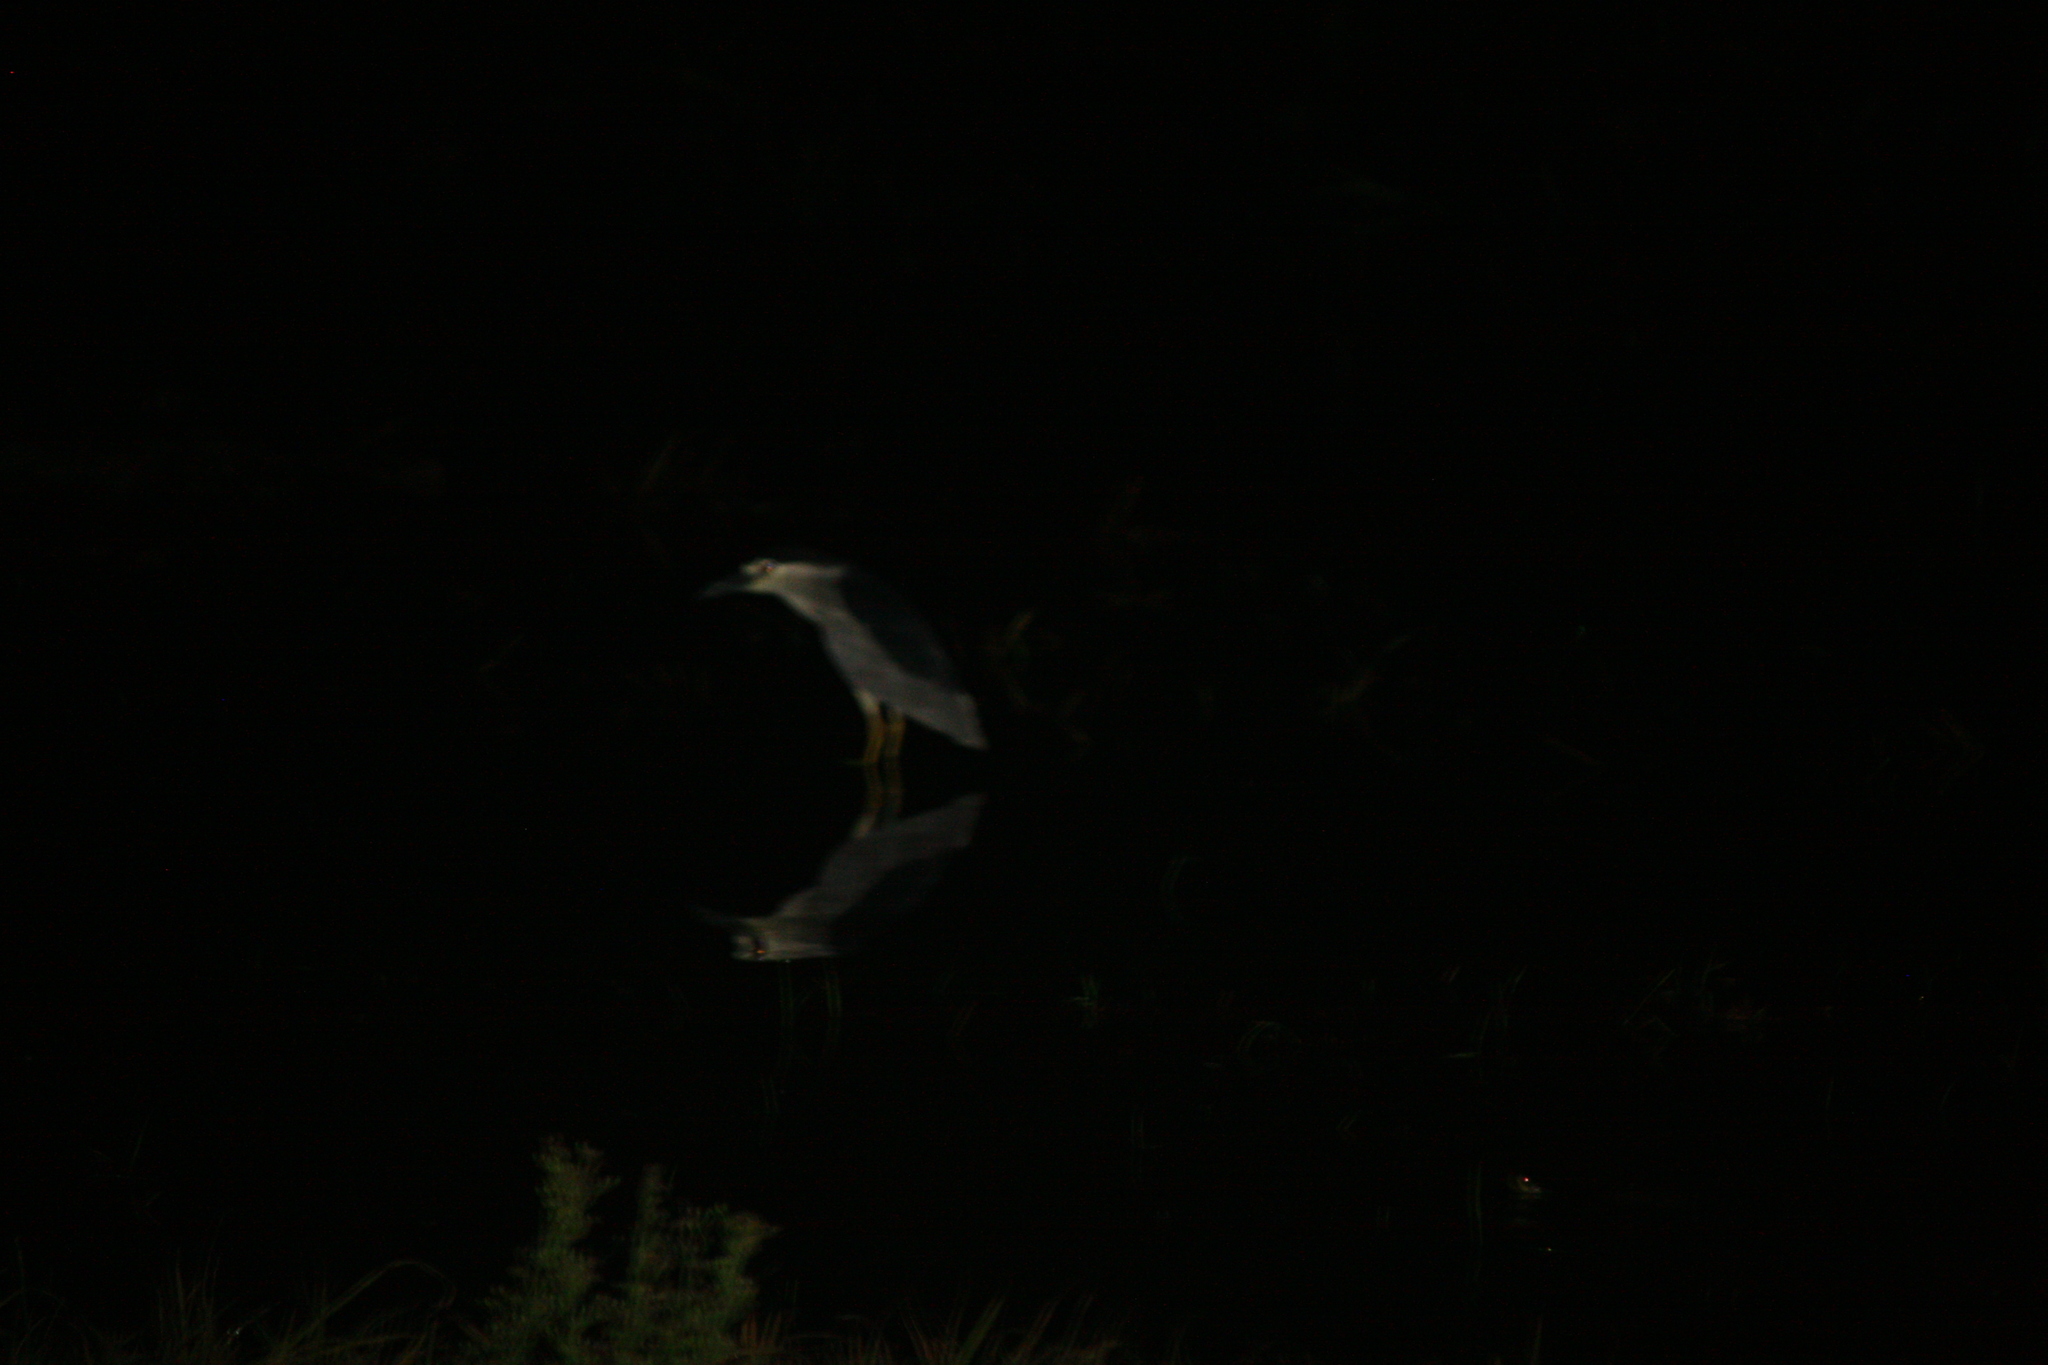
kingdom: Animalia
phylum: Chordata
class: Aves
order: Pelecaniformes
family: Ardeidae
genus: Nycticorax
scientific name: Nycticorax nycticorax
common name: Black-crowned night heron
